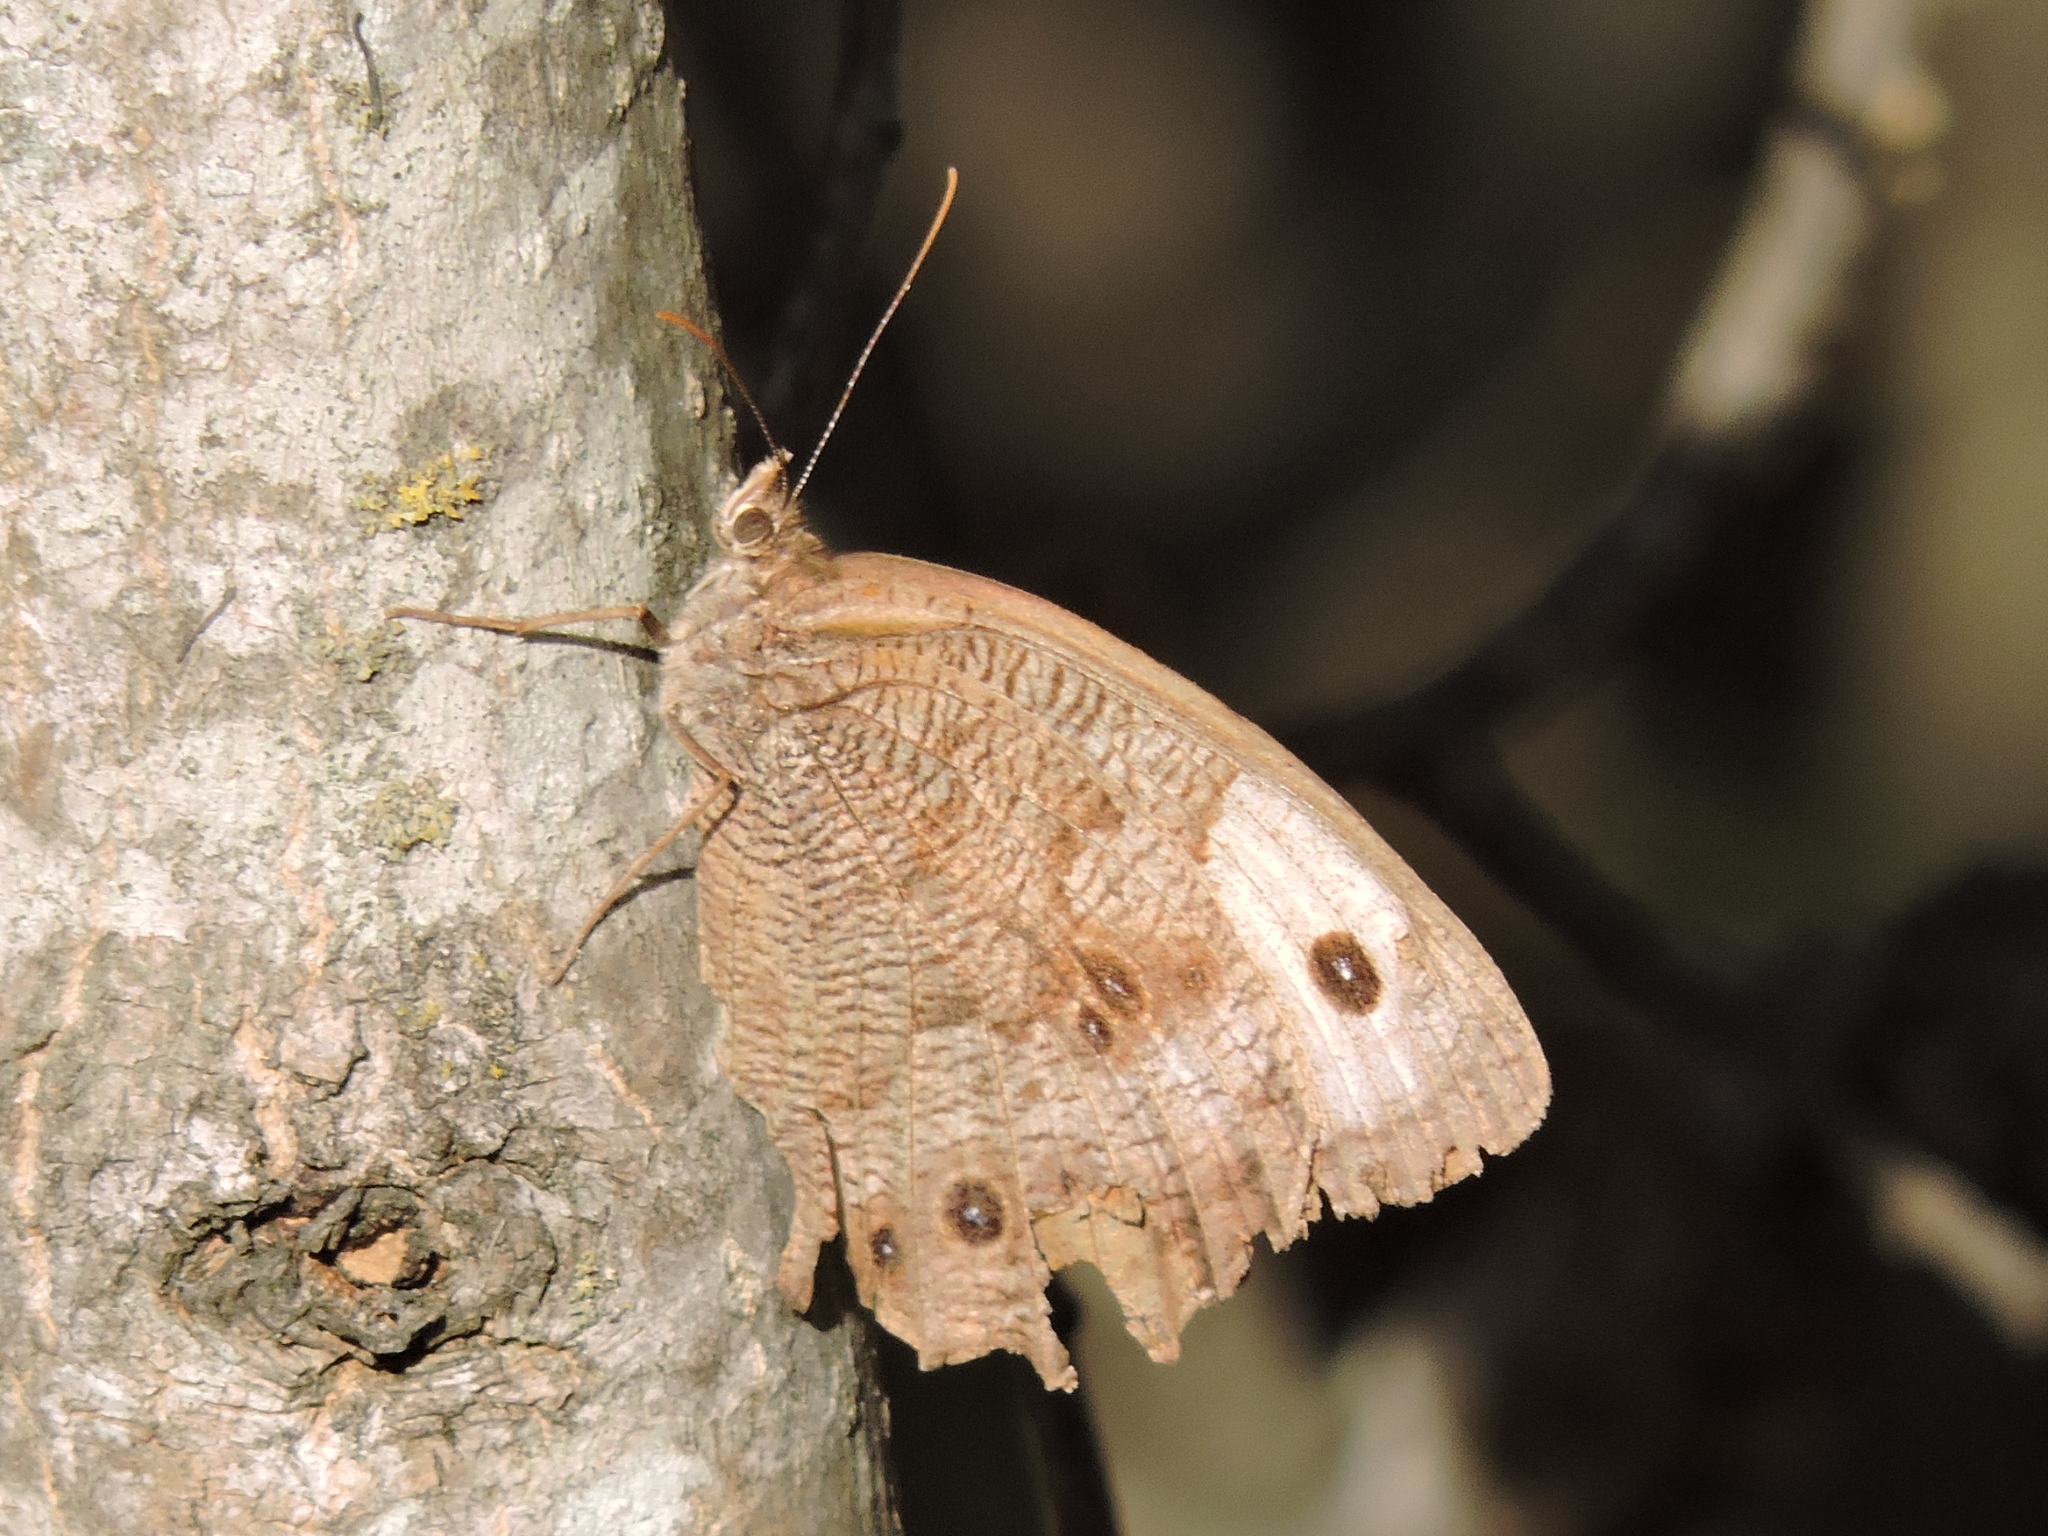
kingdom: Animalia
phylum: Arthropoda
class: Insecta
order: Lepidoptera
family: Nymphalidae
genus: Cercyonis
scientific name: Cercyonis pegala
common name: Common wood-nymph
